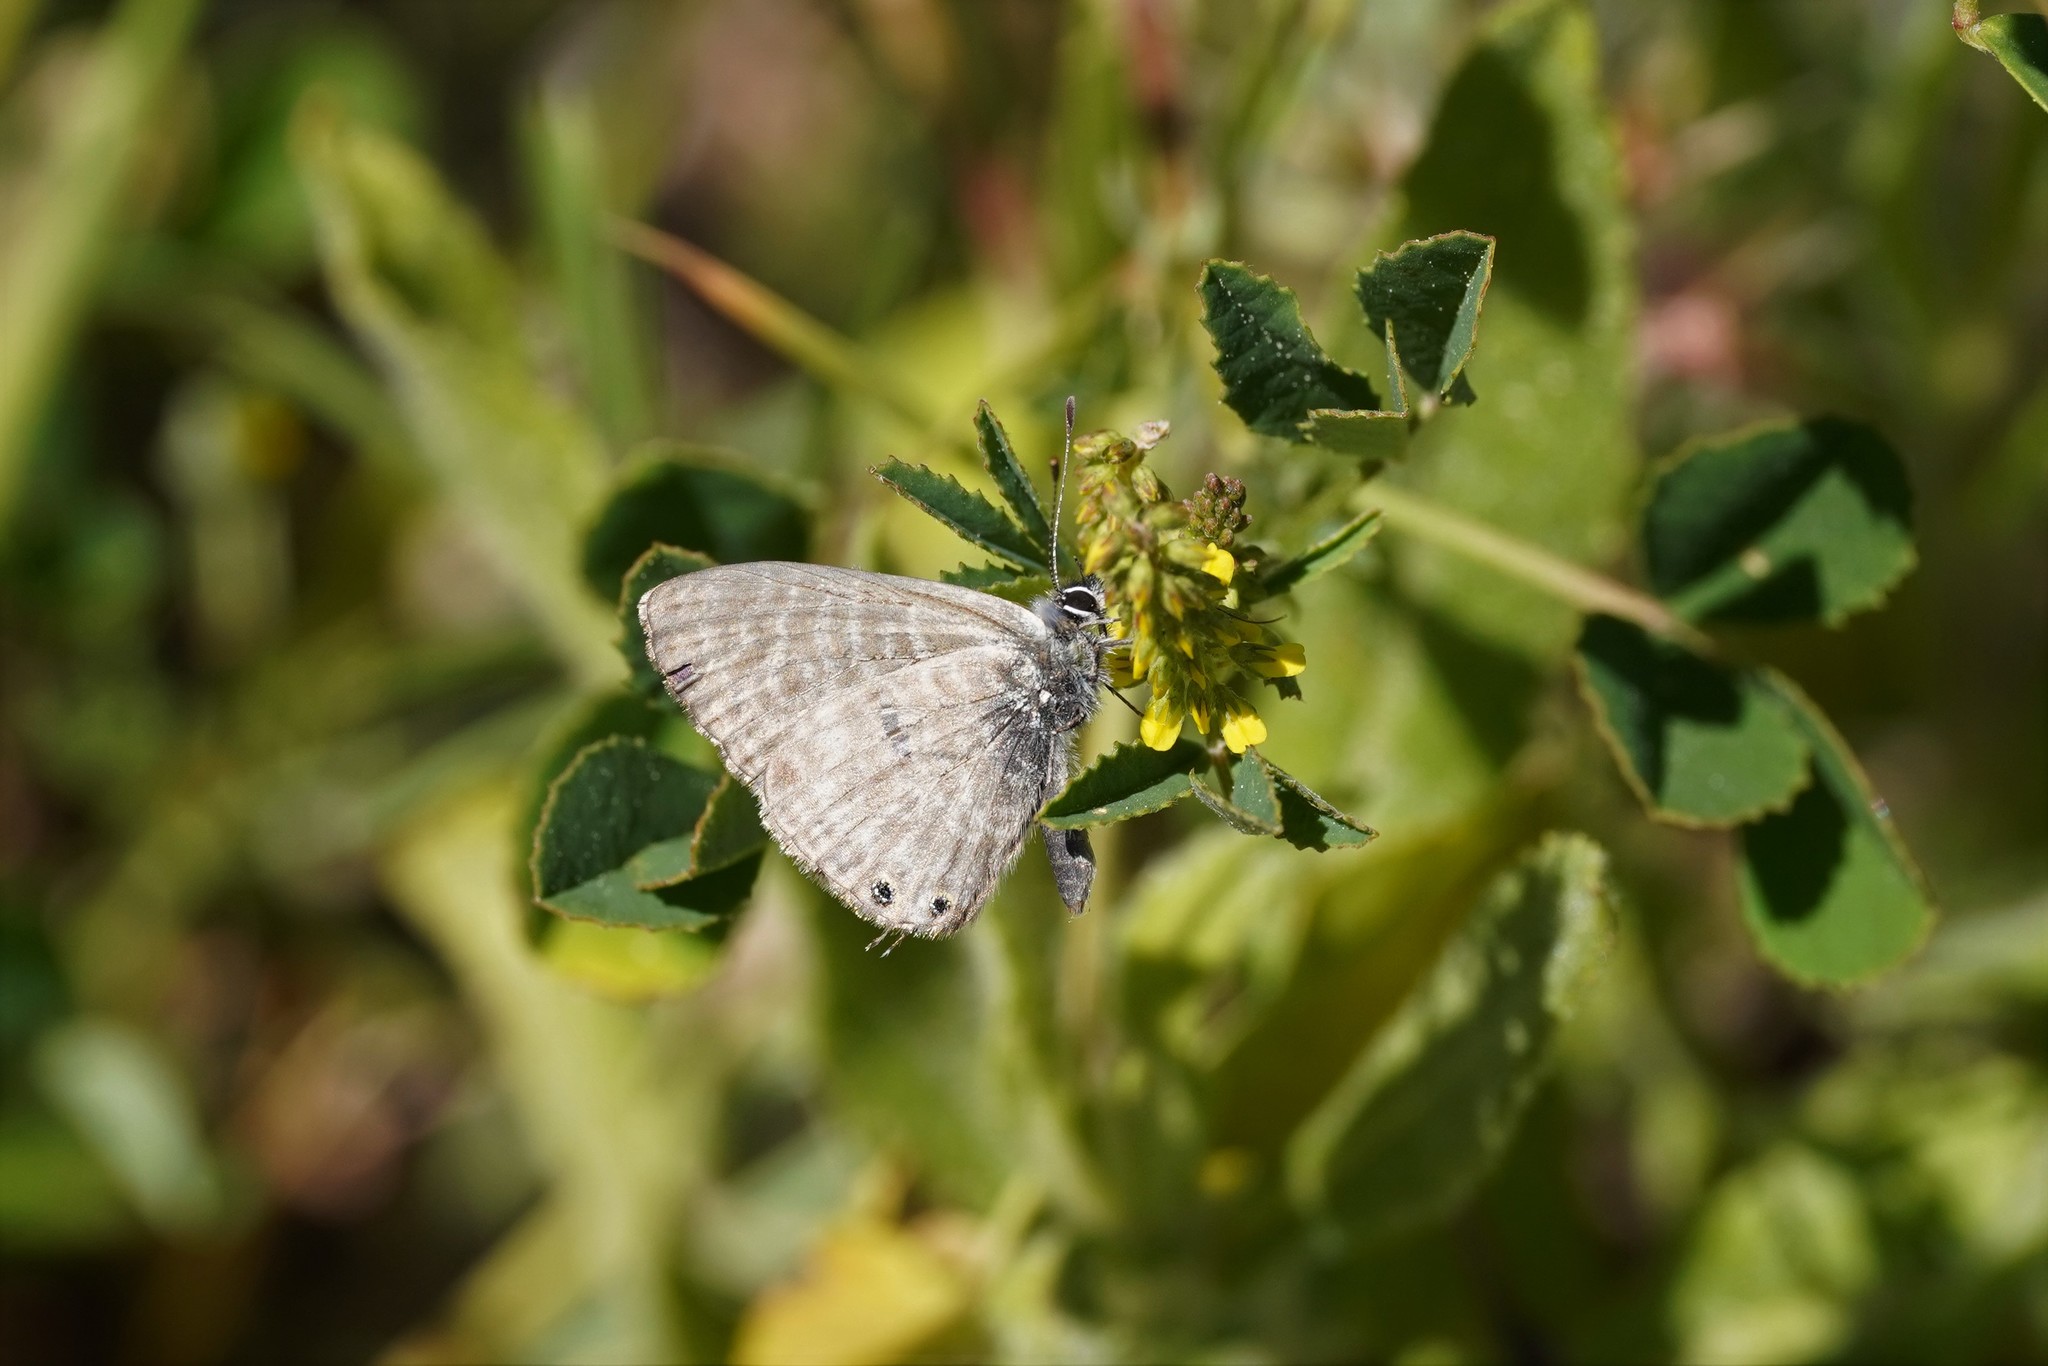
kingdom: Animalia
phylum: Arthropoda
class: Insecta
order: Lepidoptera
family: Lycaenidae
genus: Leptotes
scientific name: Leptotes pirithous
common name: Lang's short-tailed blue
